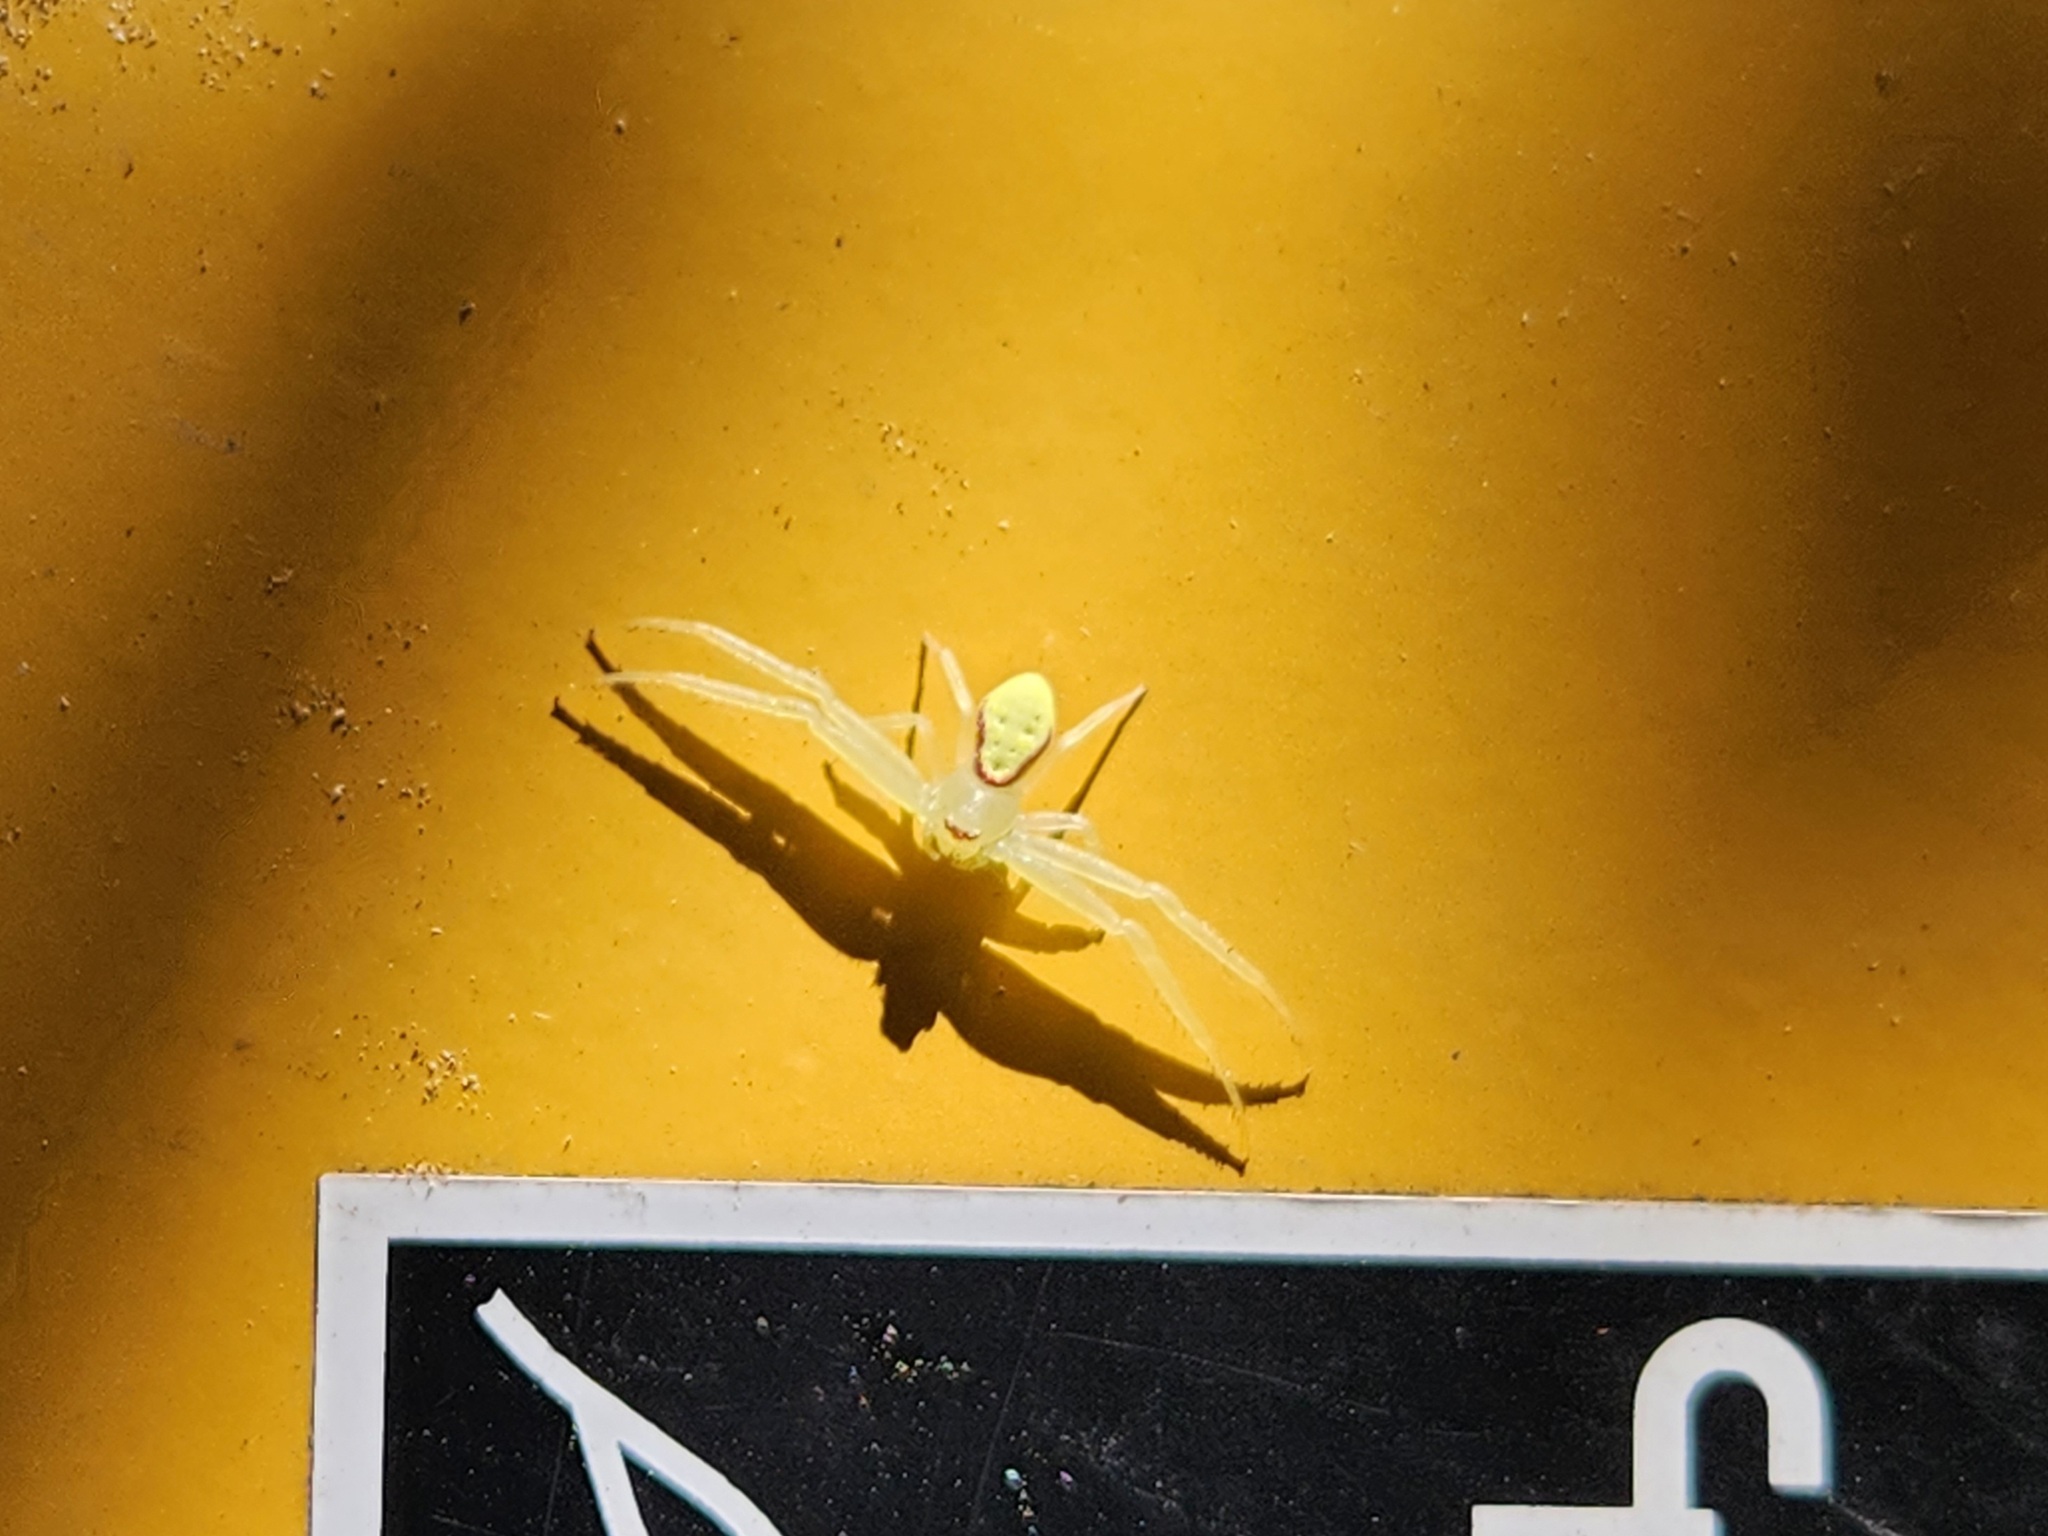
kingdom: Animalia
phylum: Arthropoda
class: Arachnida
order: Araneae
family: Thomisidae
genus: Misumessus
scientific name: Misumessus oblongus
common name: American green crab spider
